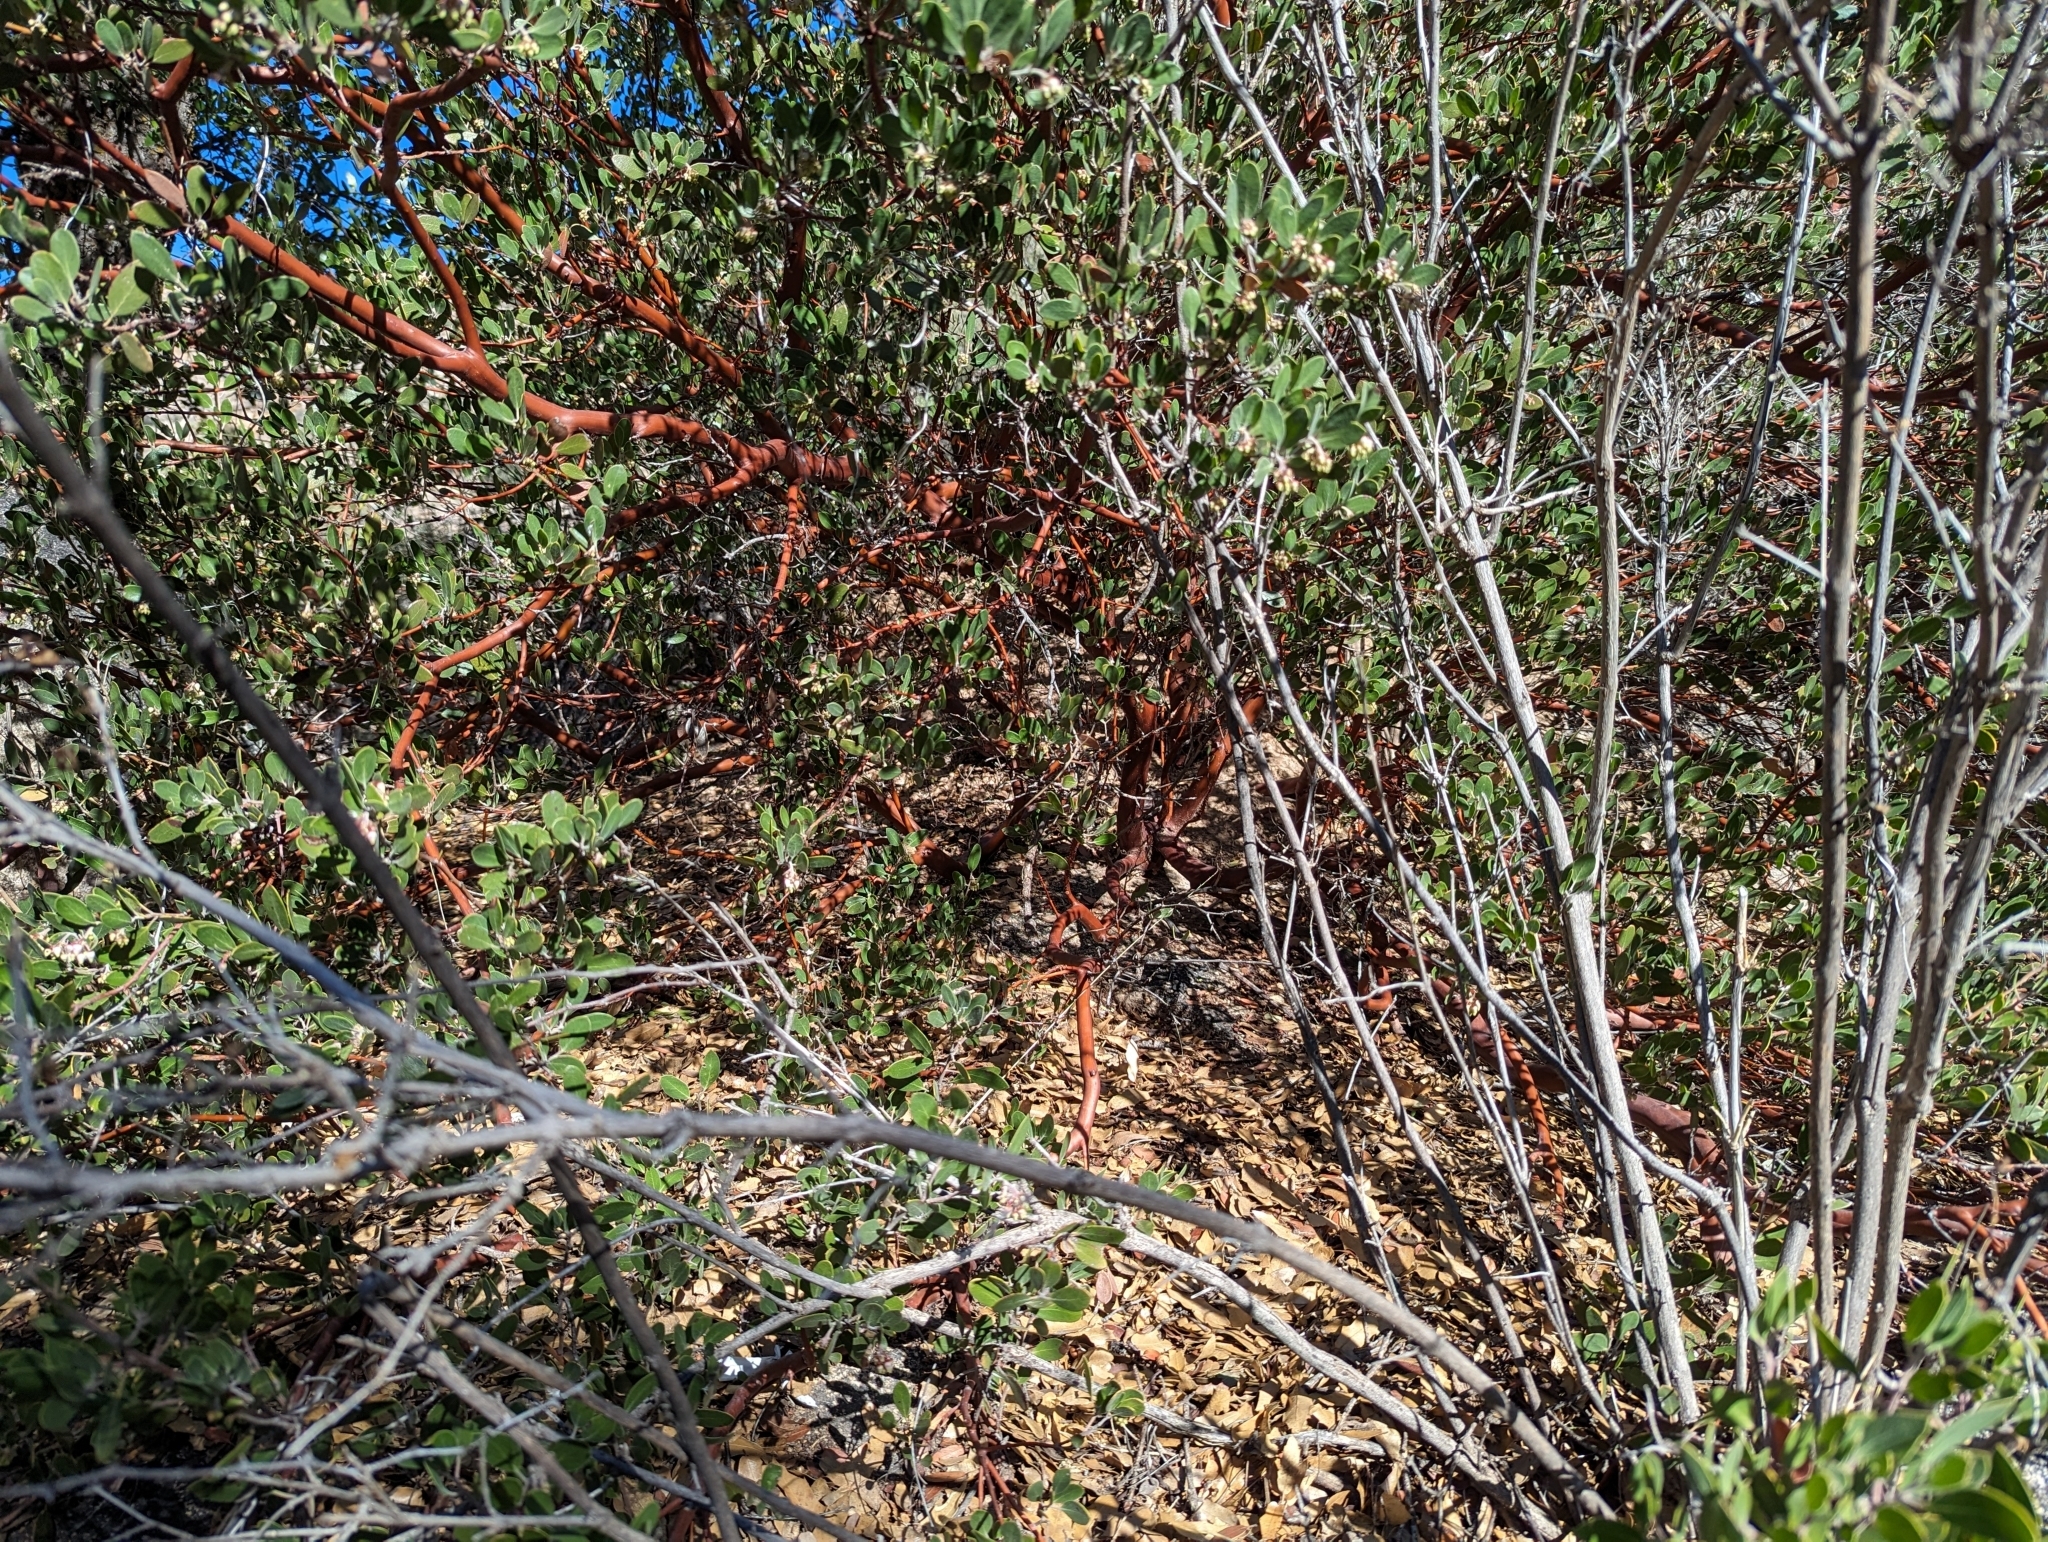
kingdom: Plantae
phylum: Tracheophyta
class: Magnoliopsida
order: Ericales
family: Ericaceae
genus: Arctostaphylos
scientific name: Arctostaphylos pungens
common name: Mexican manzanita
